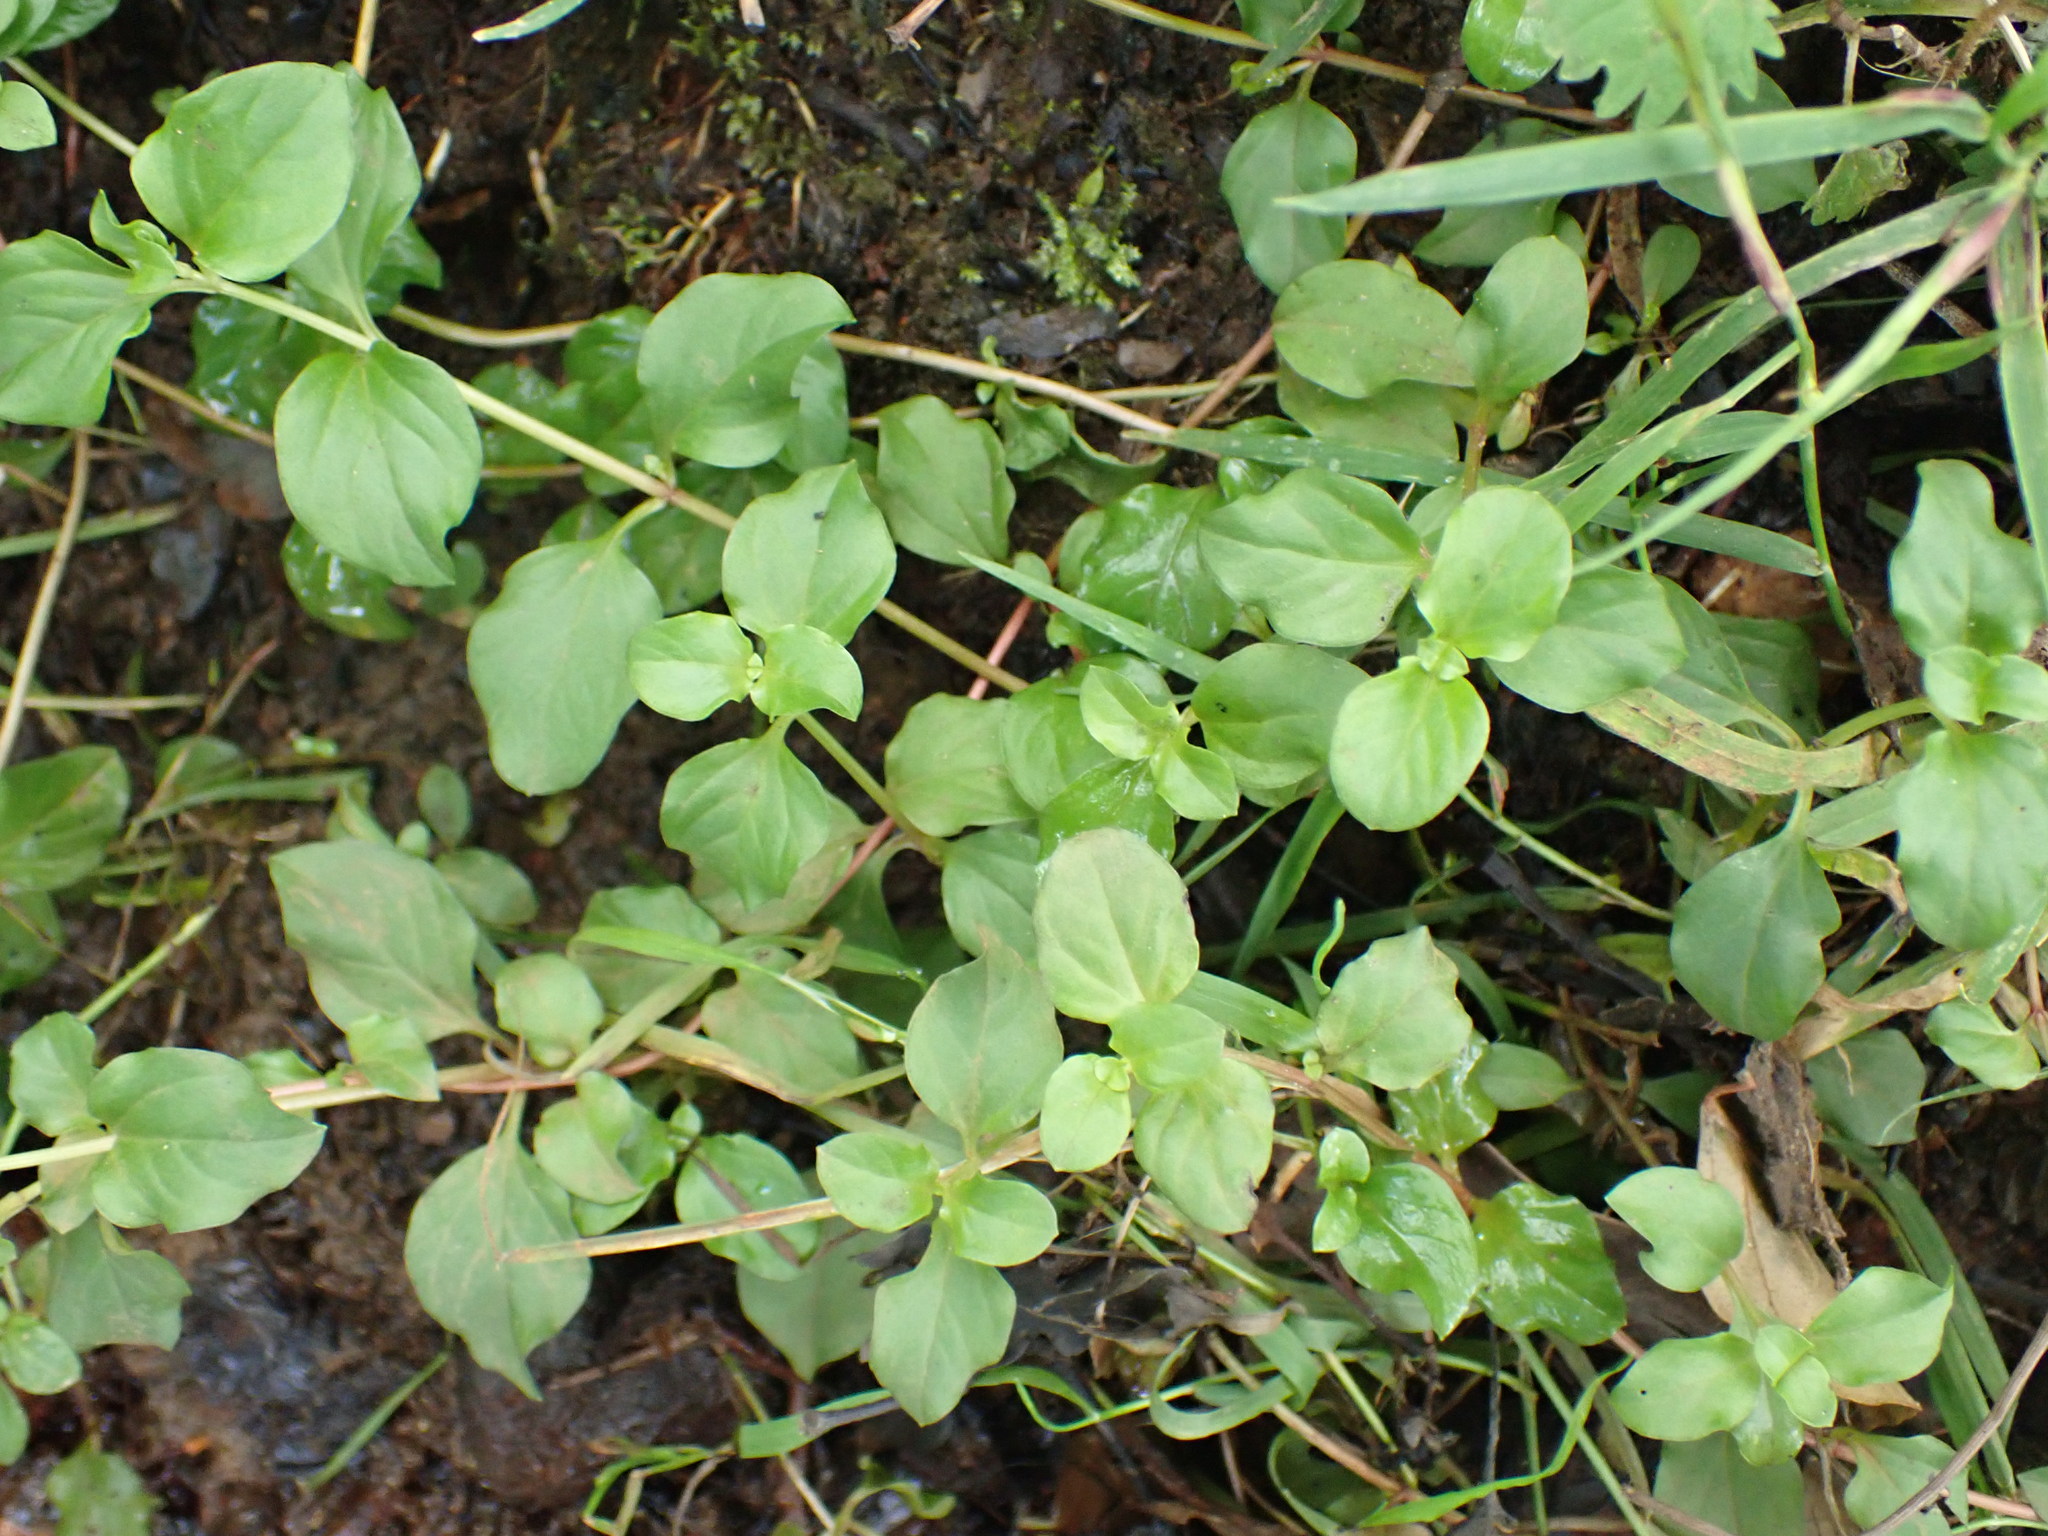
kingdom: Plantae
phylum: Tracheophyta
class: Magnoliopsida
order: Ericales
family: Primulaceae
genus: Lysimachia
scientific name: Lysimachia nemorum
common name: Yellow pimpernel
